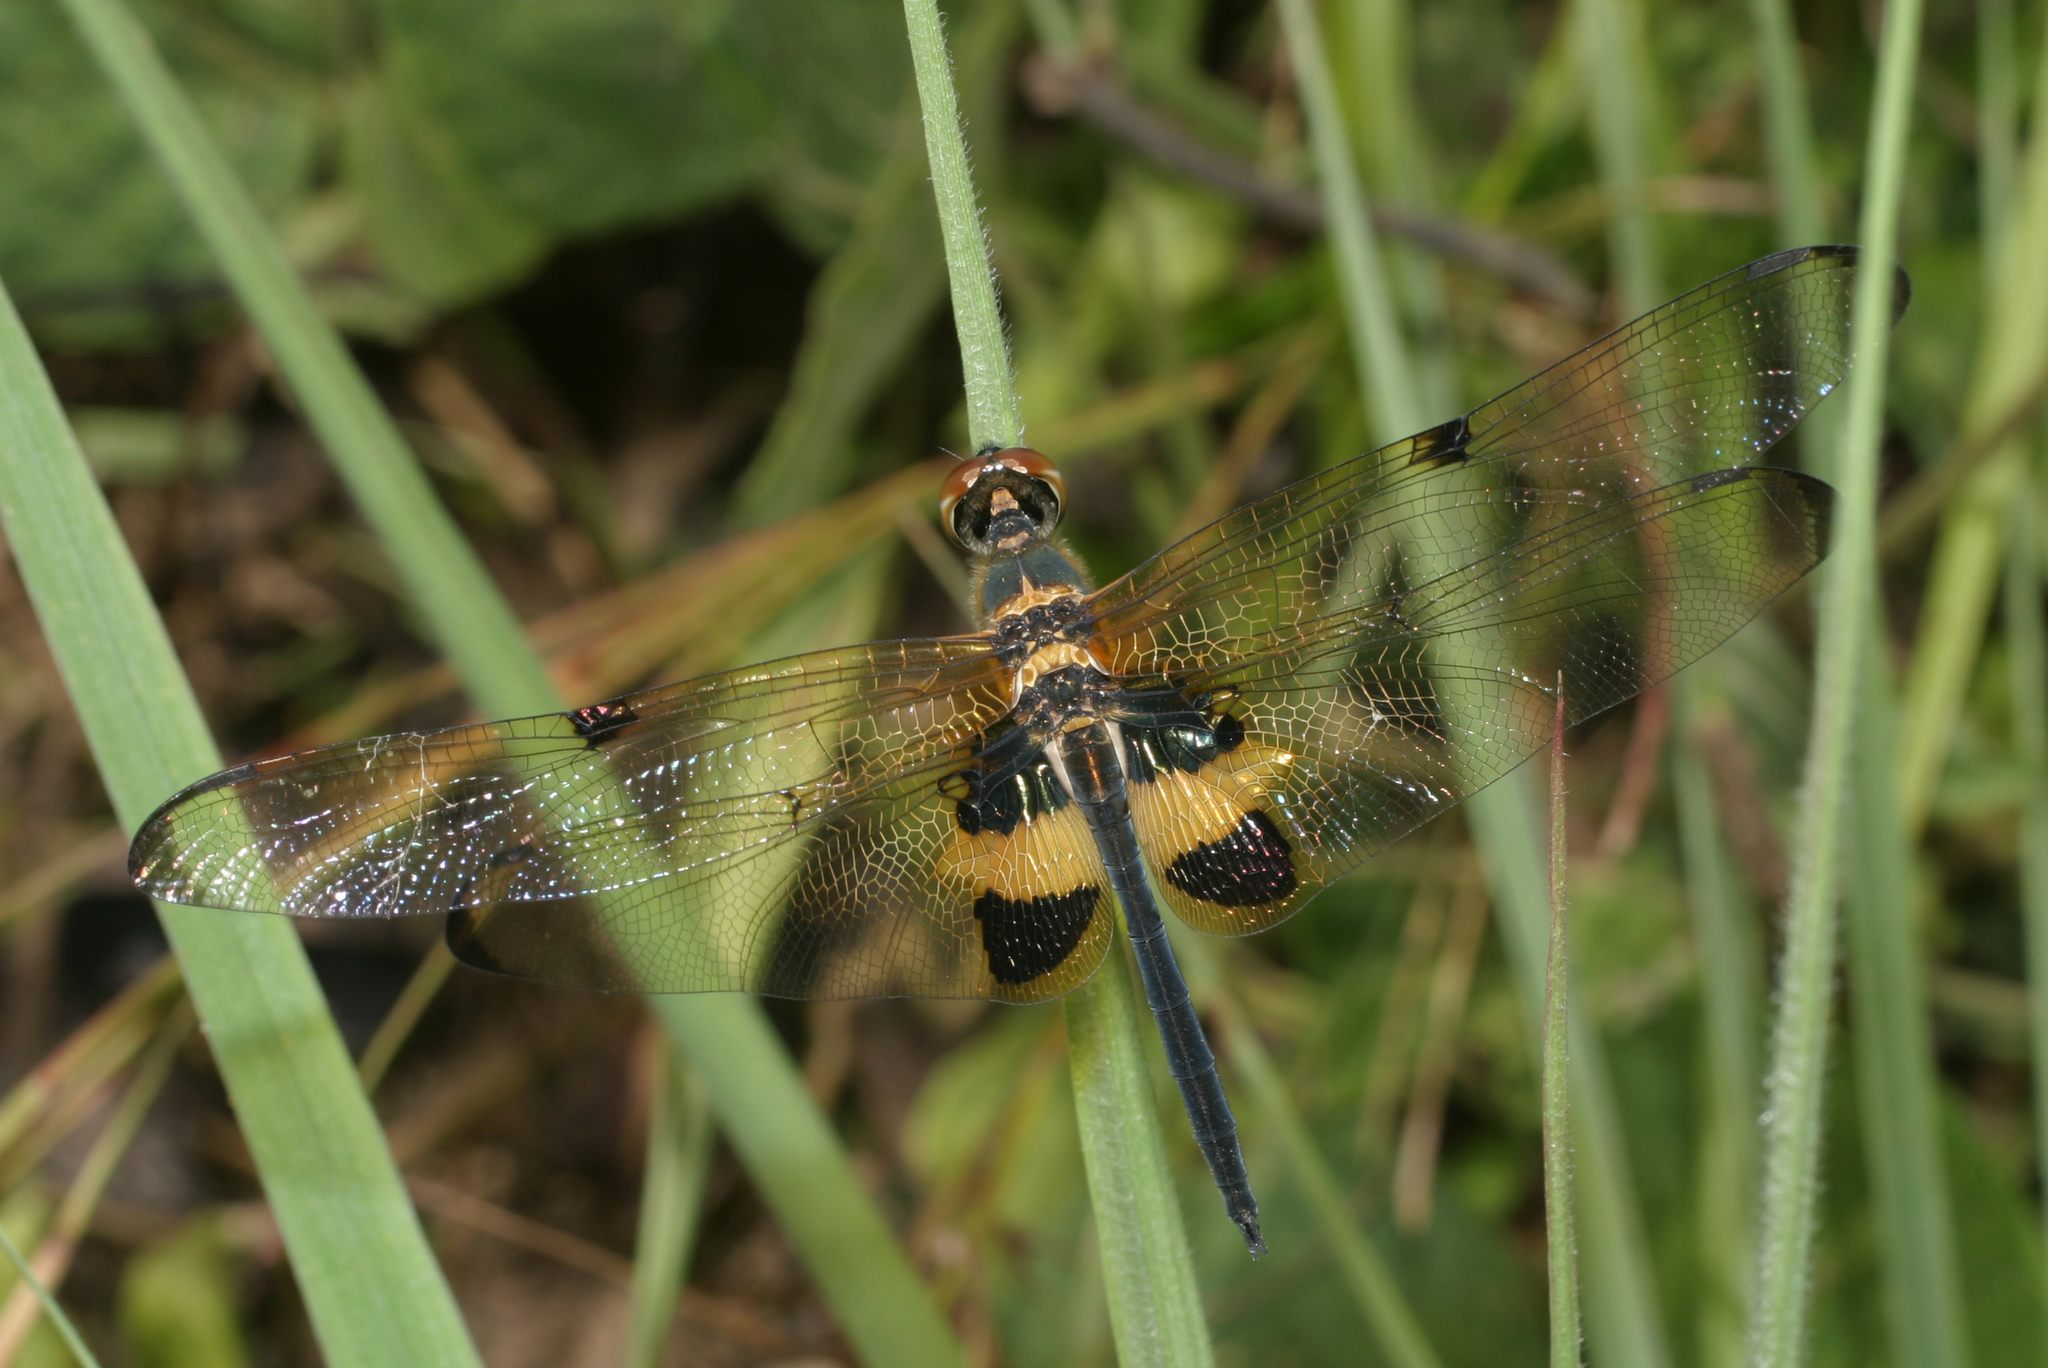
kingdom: Animalia
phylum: Arthropoda
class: Insecta
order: Odonata
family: Libellulidae
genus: Rhyothemis
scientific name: Rhyothemis phyllis
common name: Yellow-barred flutterer
